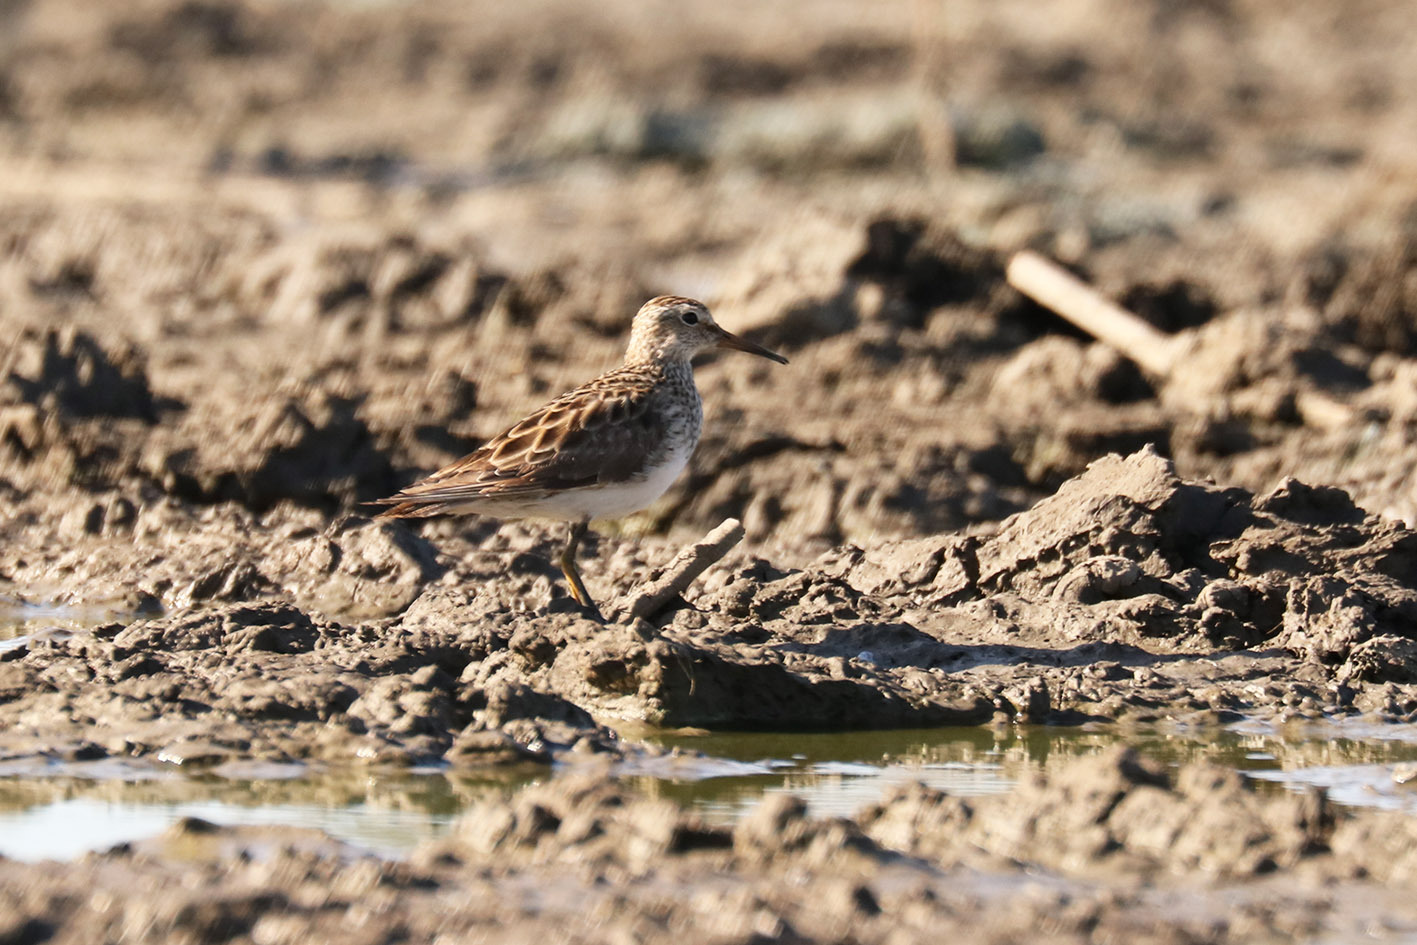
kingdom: Animalia
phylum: Chordata
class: Aves
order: Charadriiformes
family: Scolopacidae
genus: Calidris
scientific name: Calidris melanotos
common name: Pectoral sandpiper
